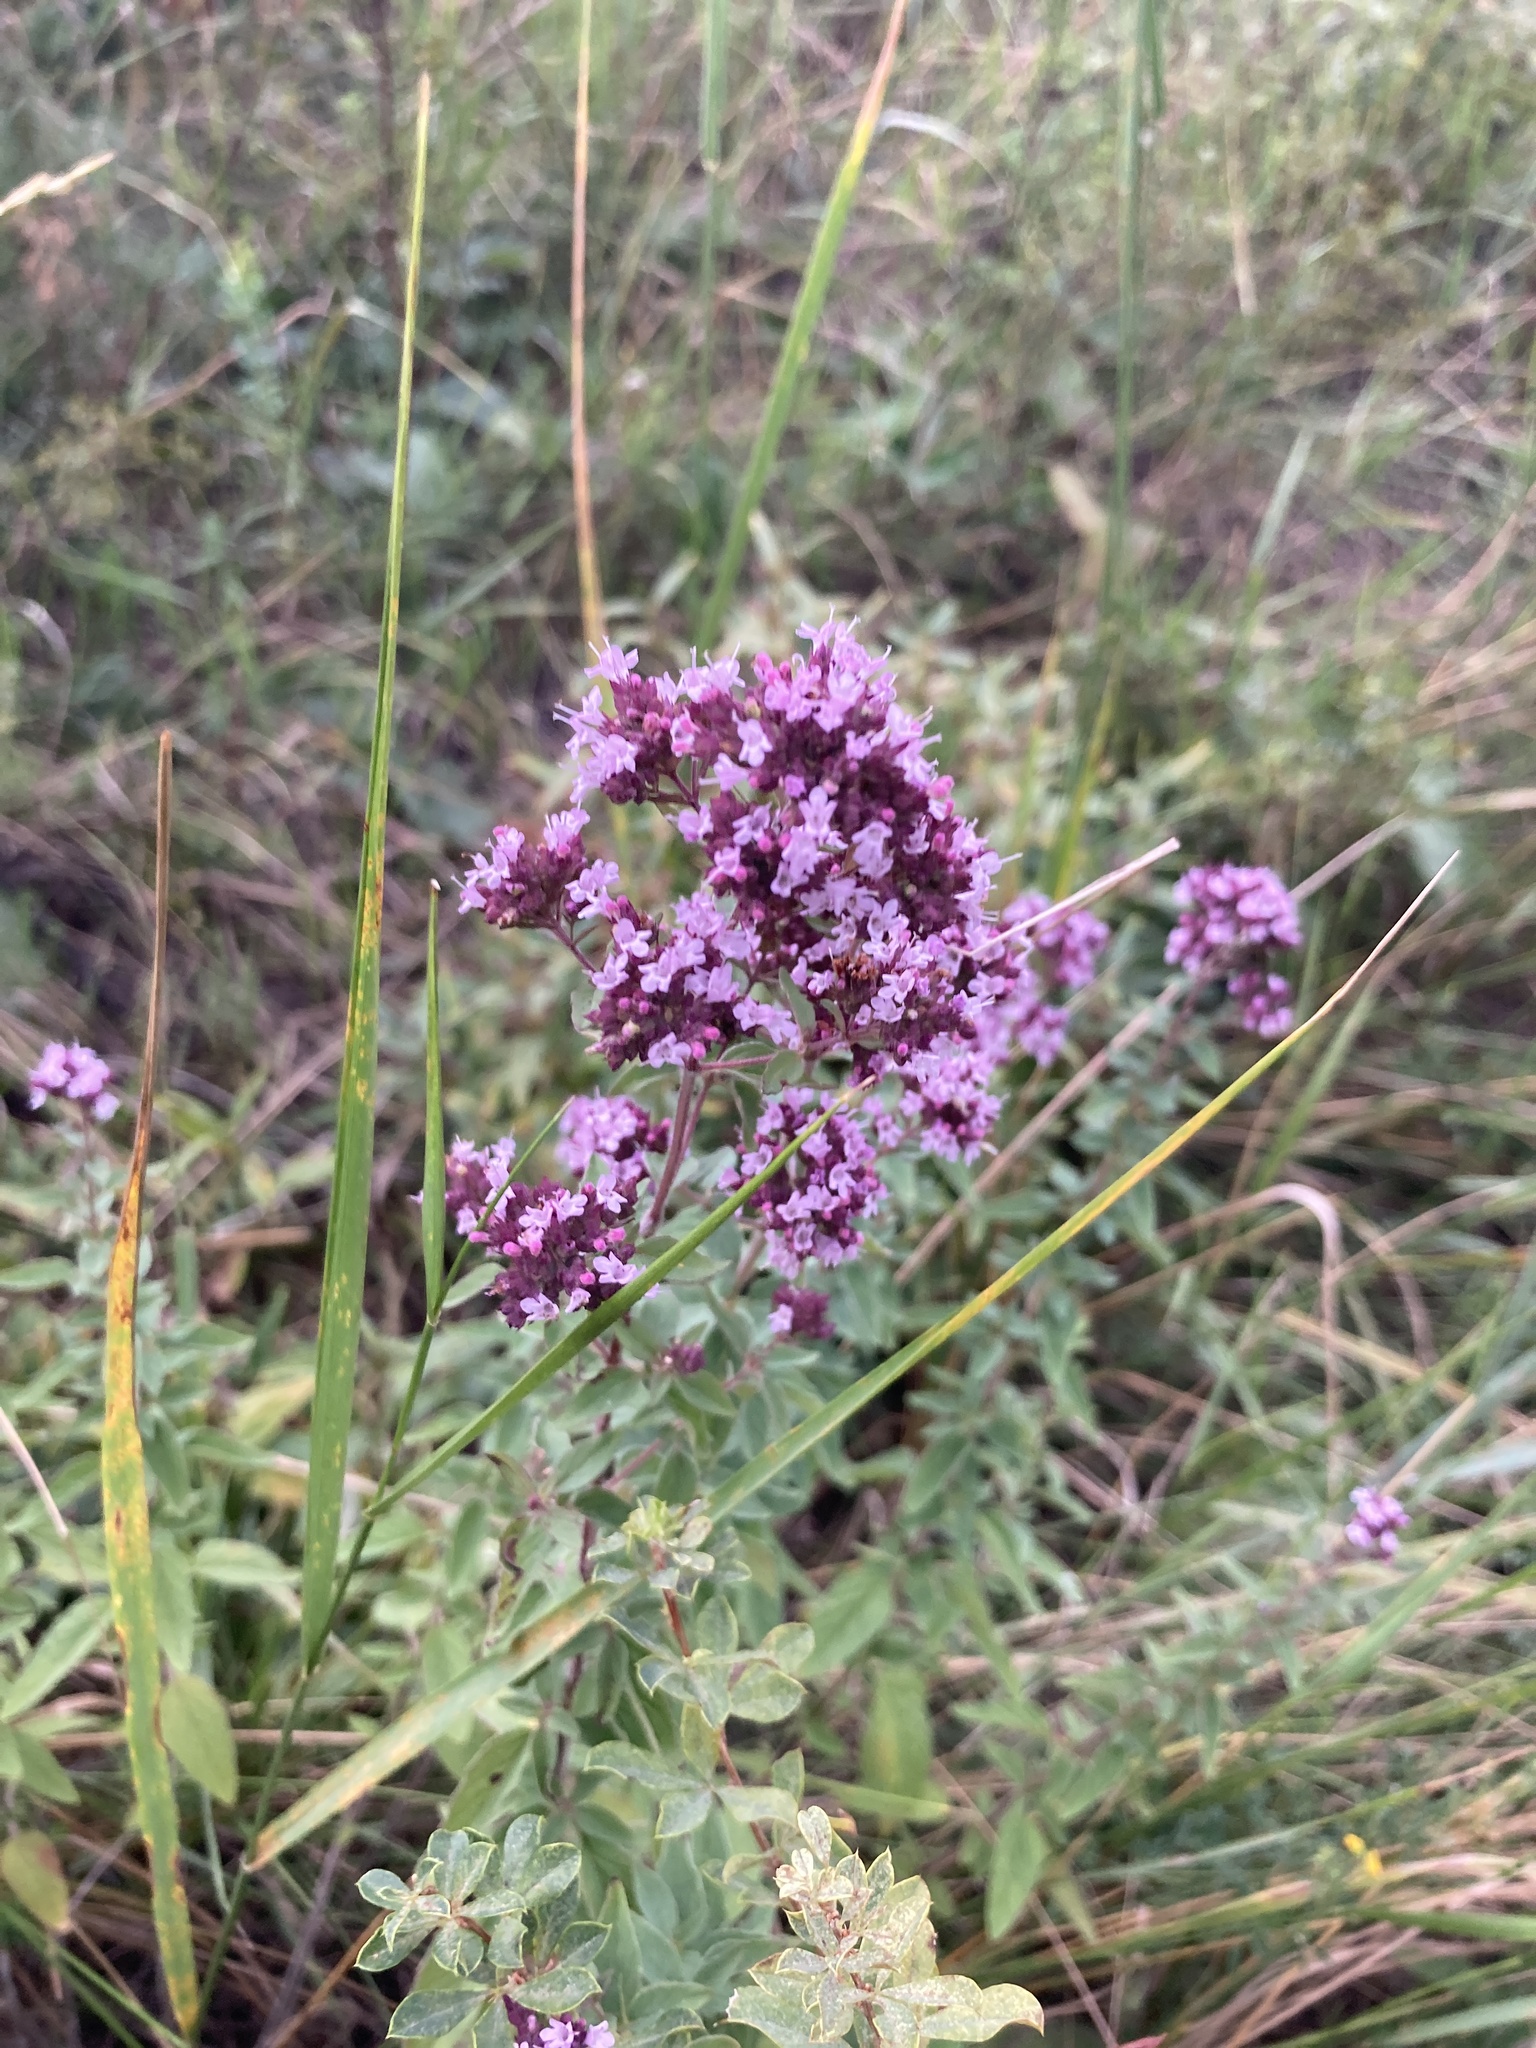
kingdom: Plantae
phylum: Tracheophyta
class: Magnoliopsida
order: Lamiales
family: Lamiaceae
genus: Origanum
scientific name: Origanum vulgare
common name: Wild marjoram
